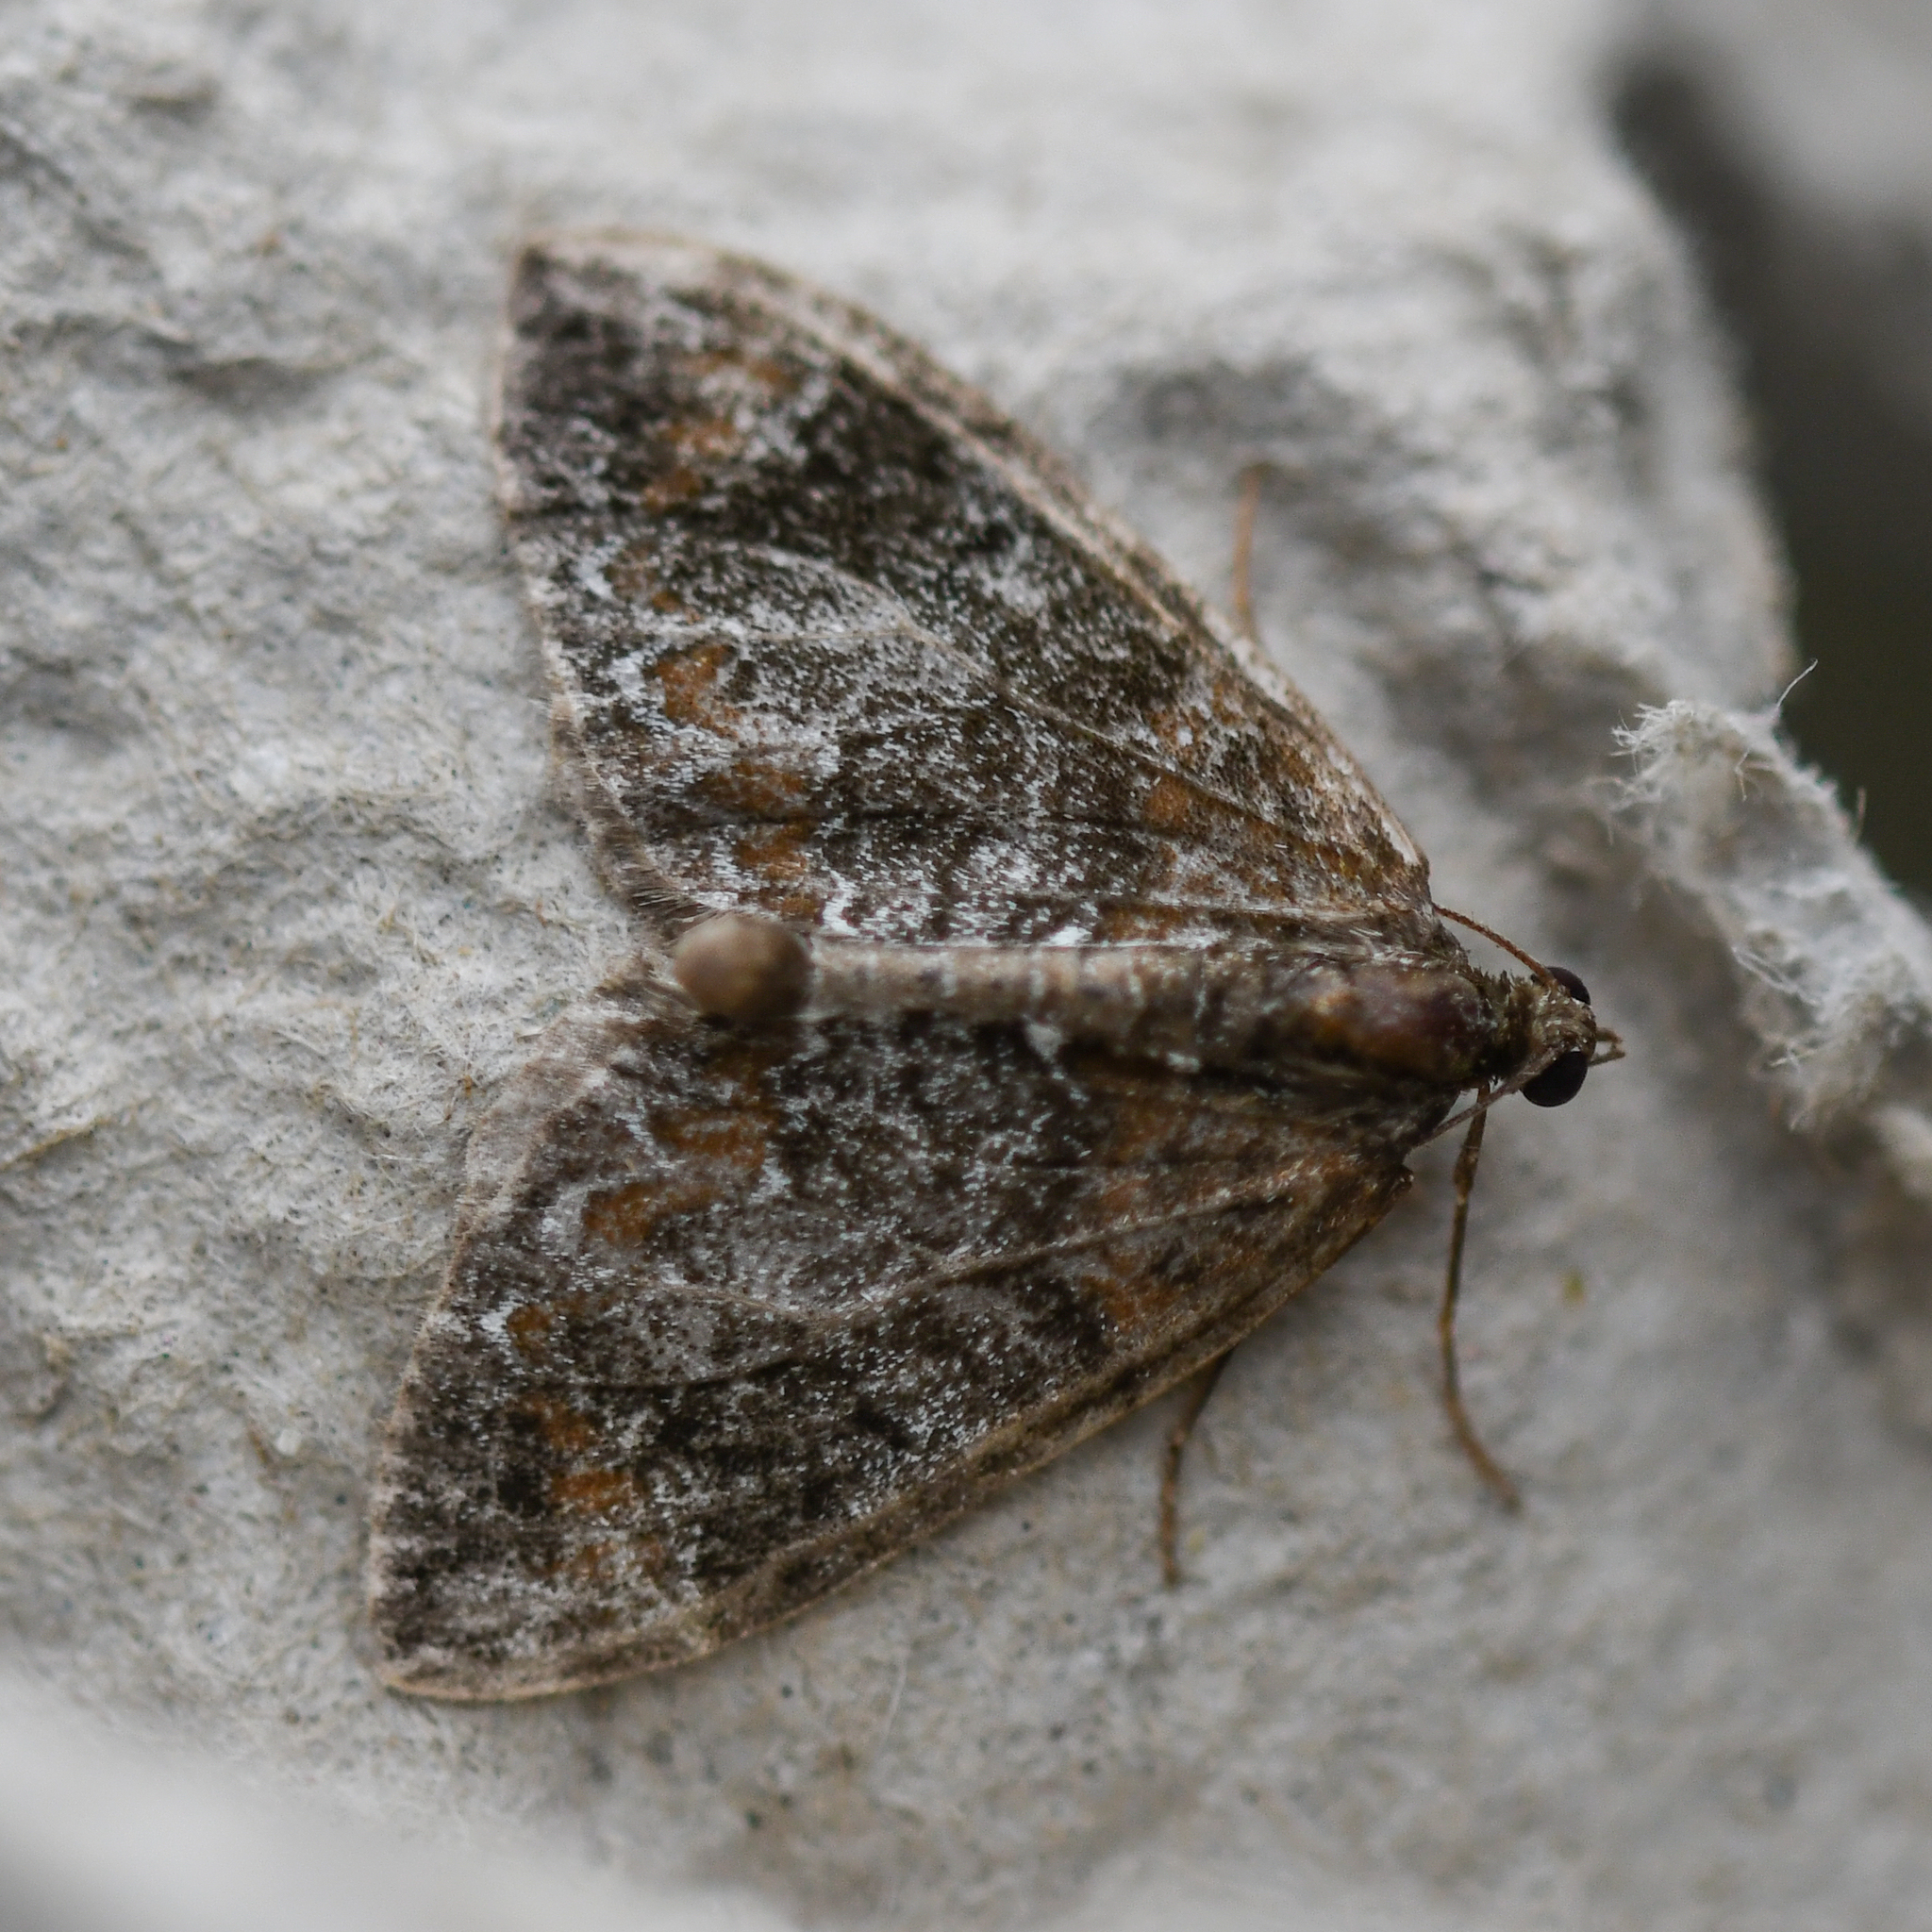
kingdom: Animalia
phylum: Arthropoda
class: Insecta
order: Lepidoptera
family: Geometridae
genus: Dysstroma
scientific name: Dysstroma truncata
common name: Common marbled carpet
